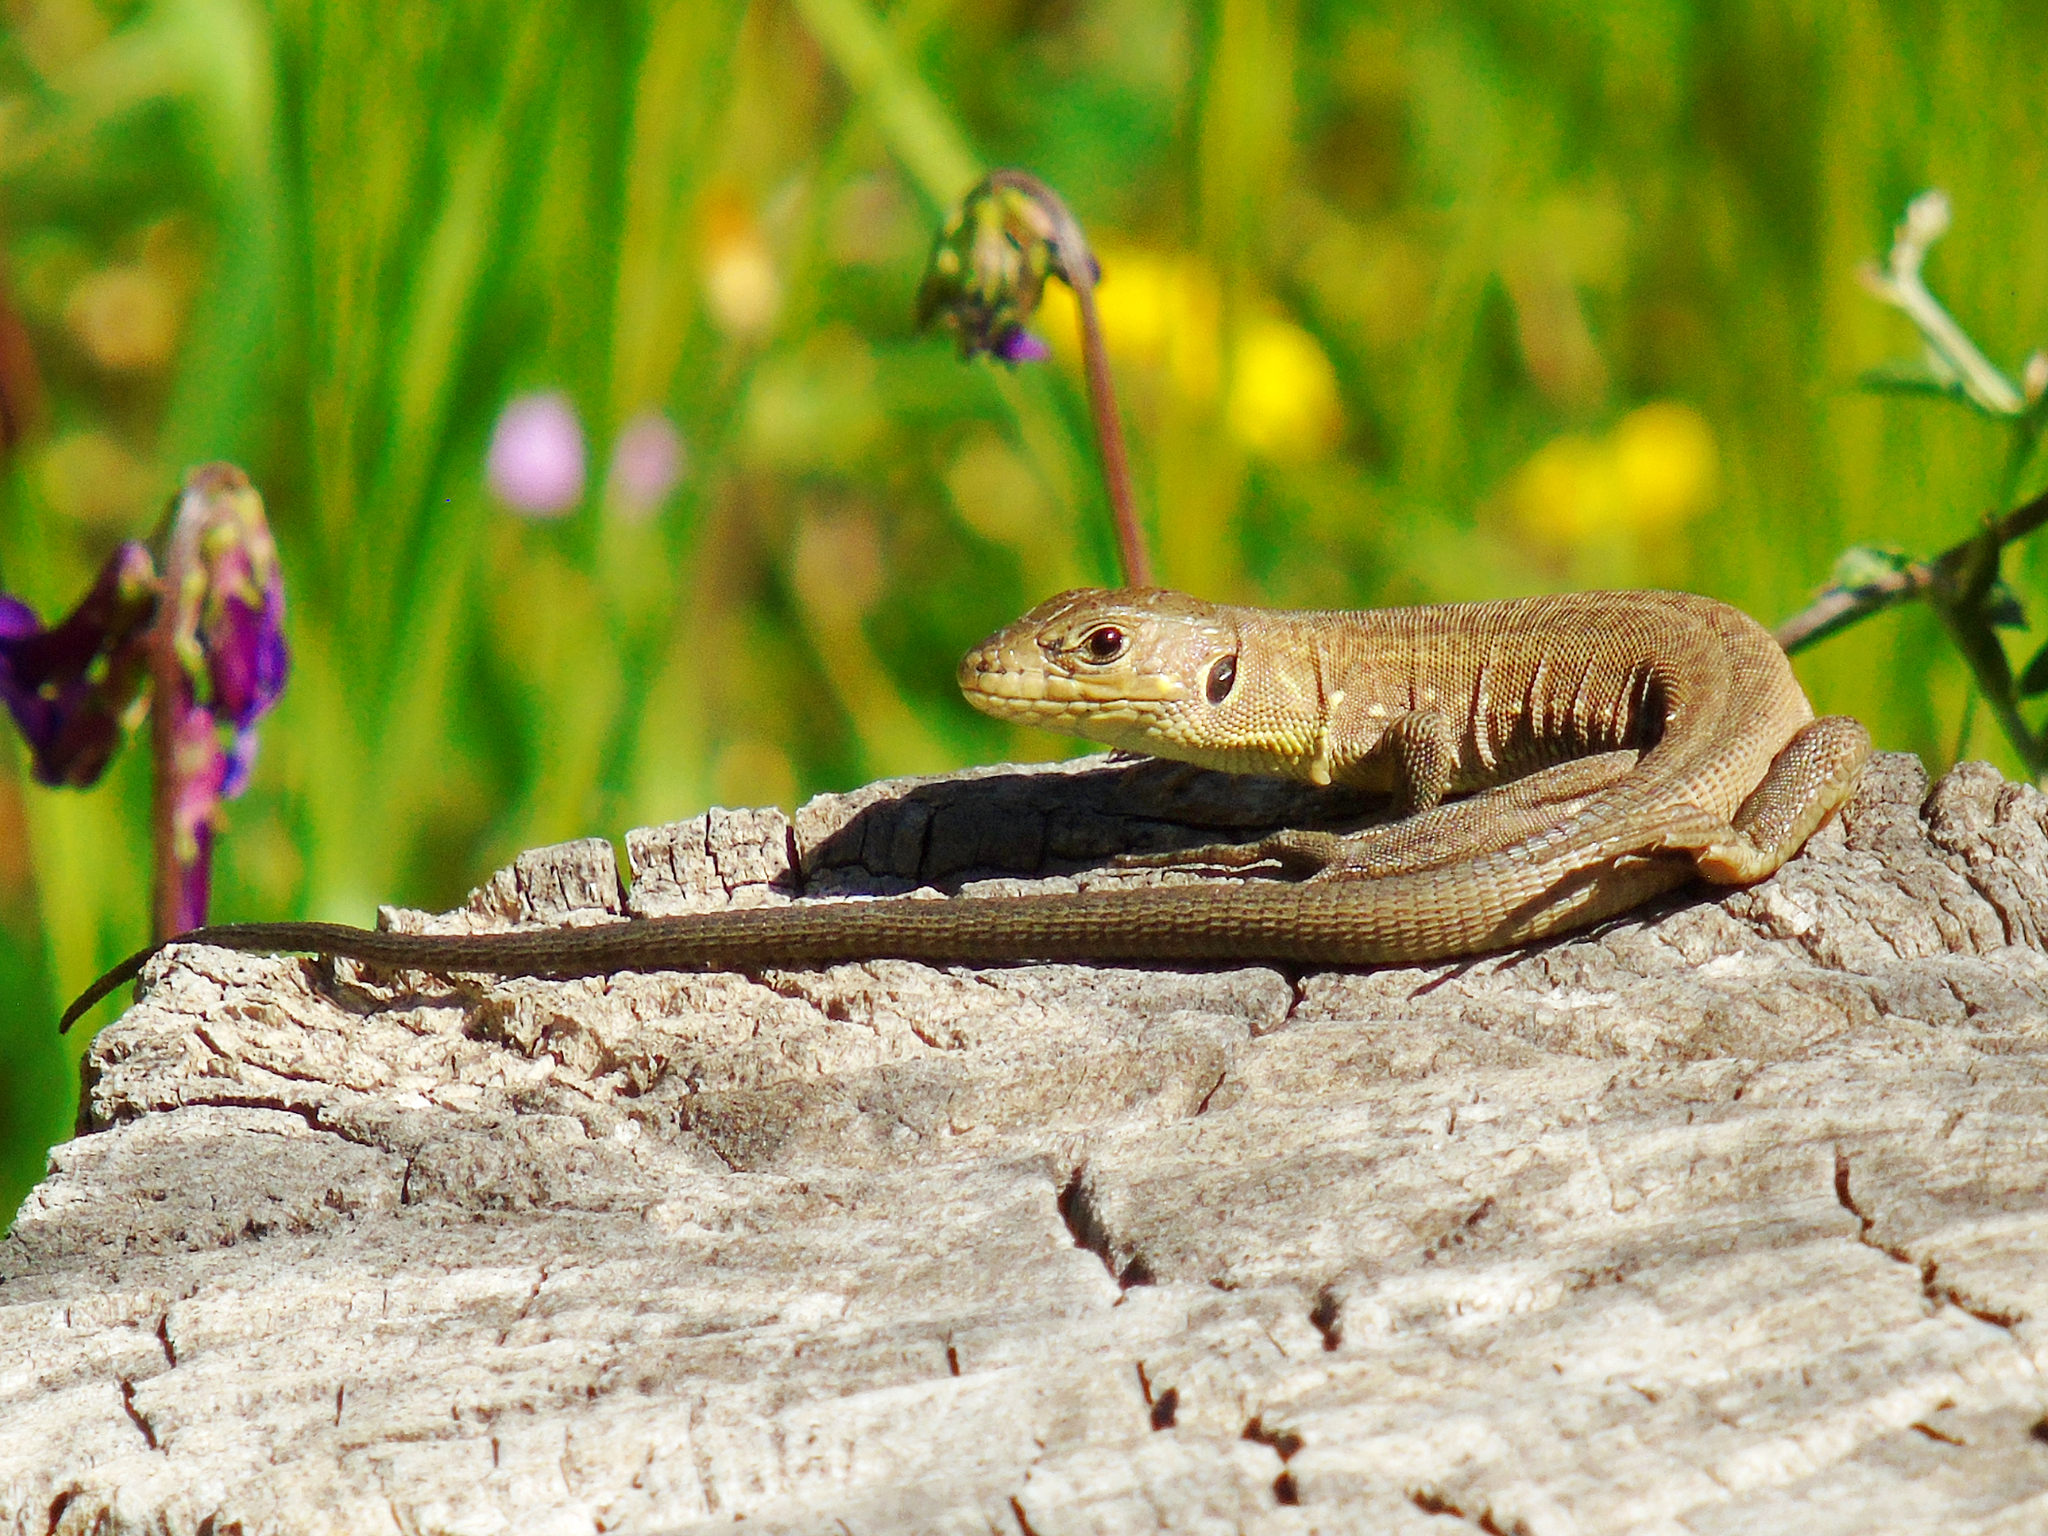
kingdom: Animalia
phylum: Chordata
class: Squamata
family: Lacertidae
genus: Lacerta
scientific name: Lacerta trilineata
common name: Balkan green lizard
